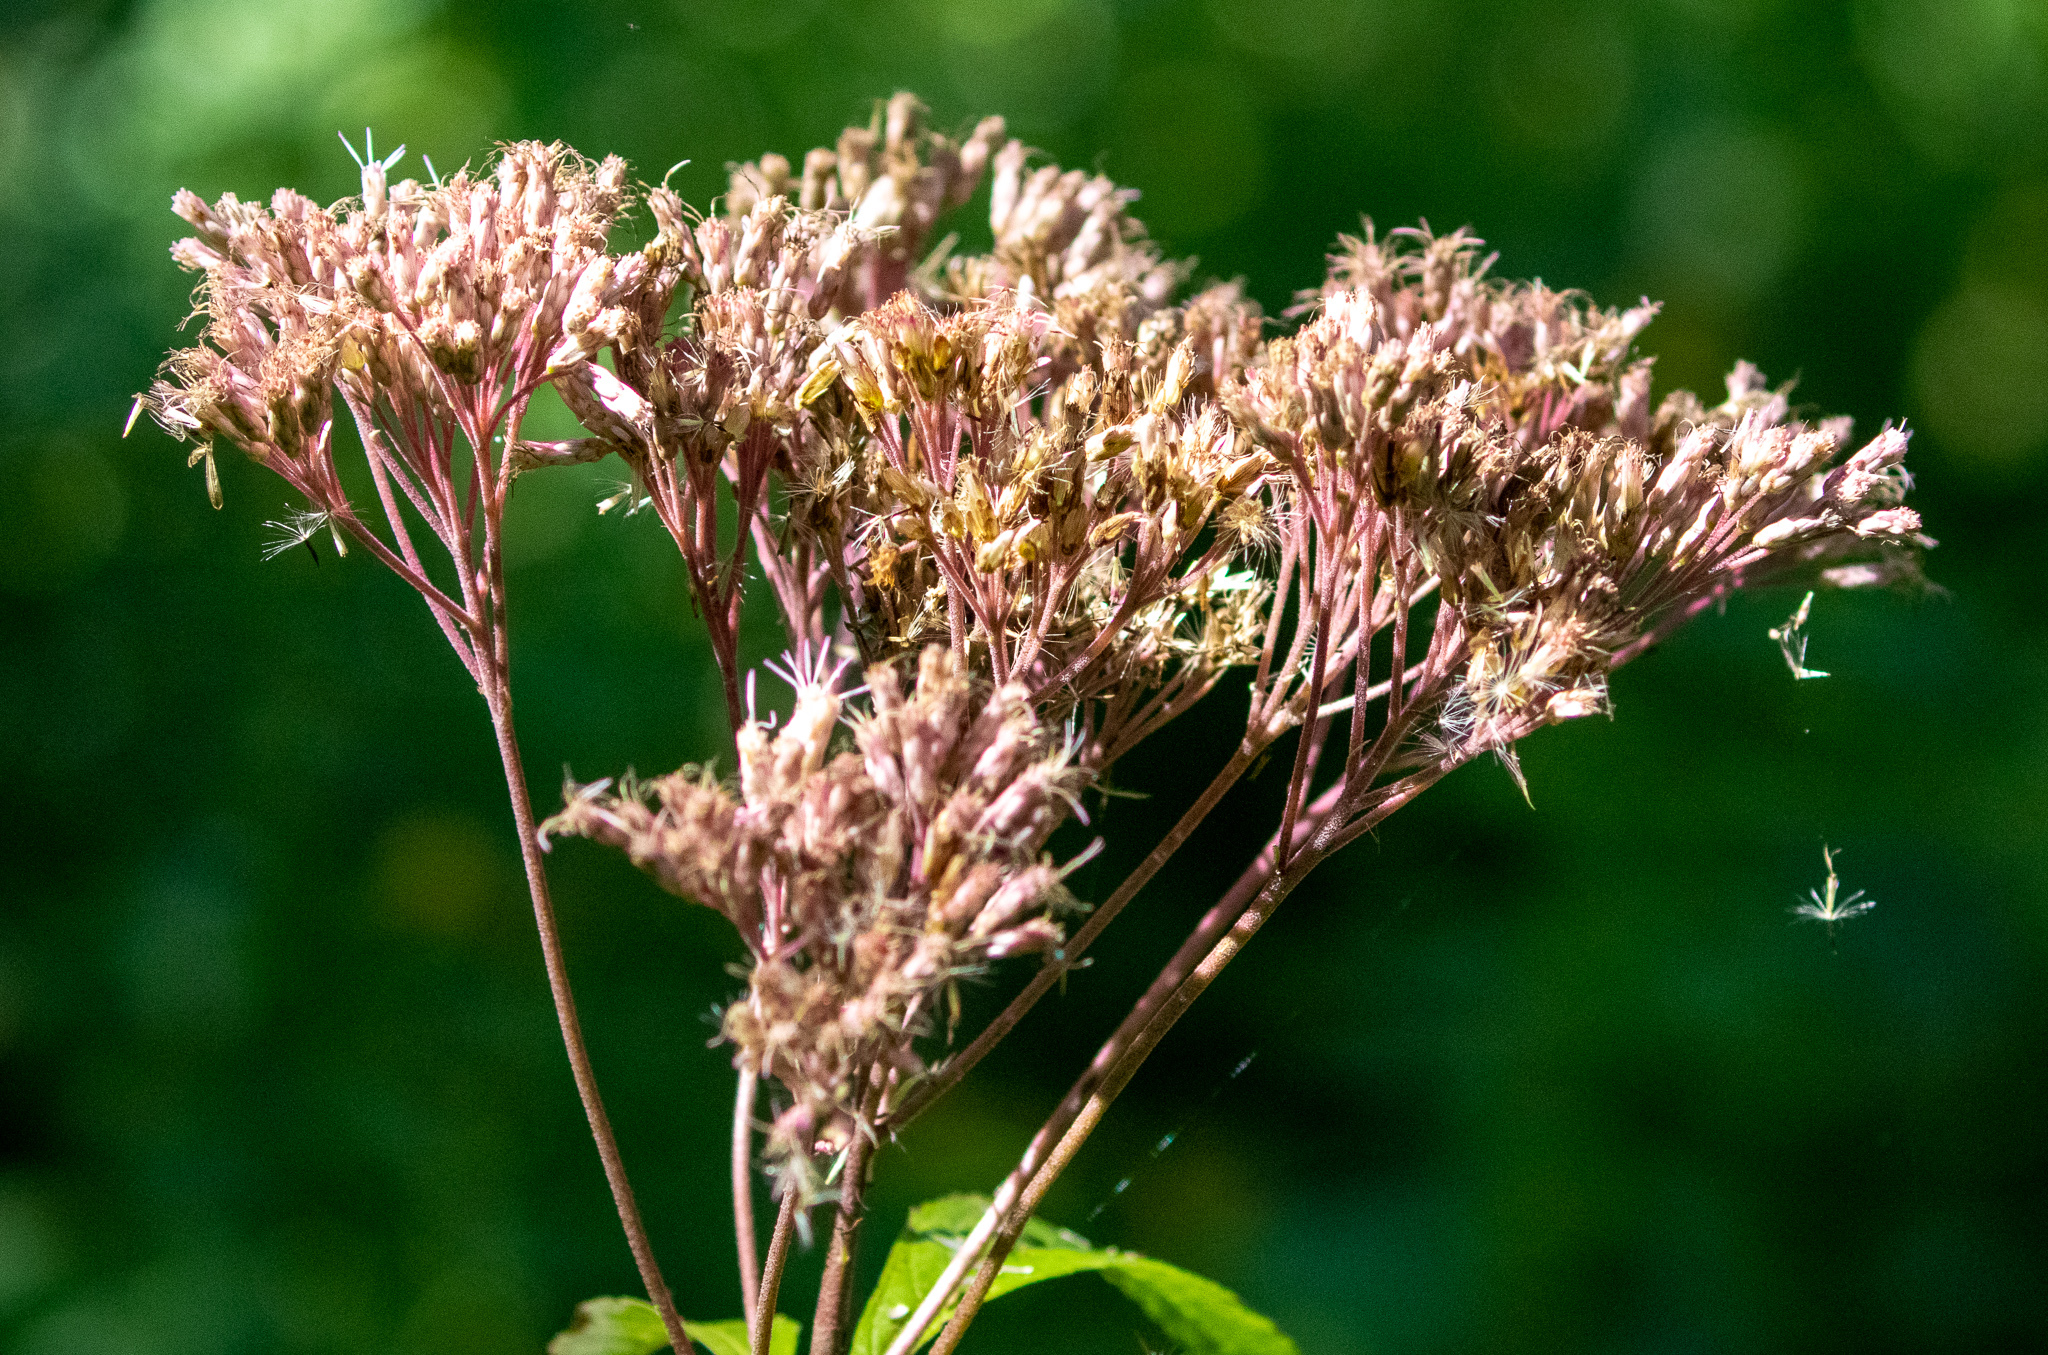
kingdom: Plantae
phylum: Tracheophyta
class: Magnoliopsida
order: Asterales
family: Asteraceae
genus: Eutrochium
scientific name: Eutrochium maculatum
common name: Spotted joe pye weed
